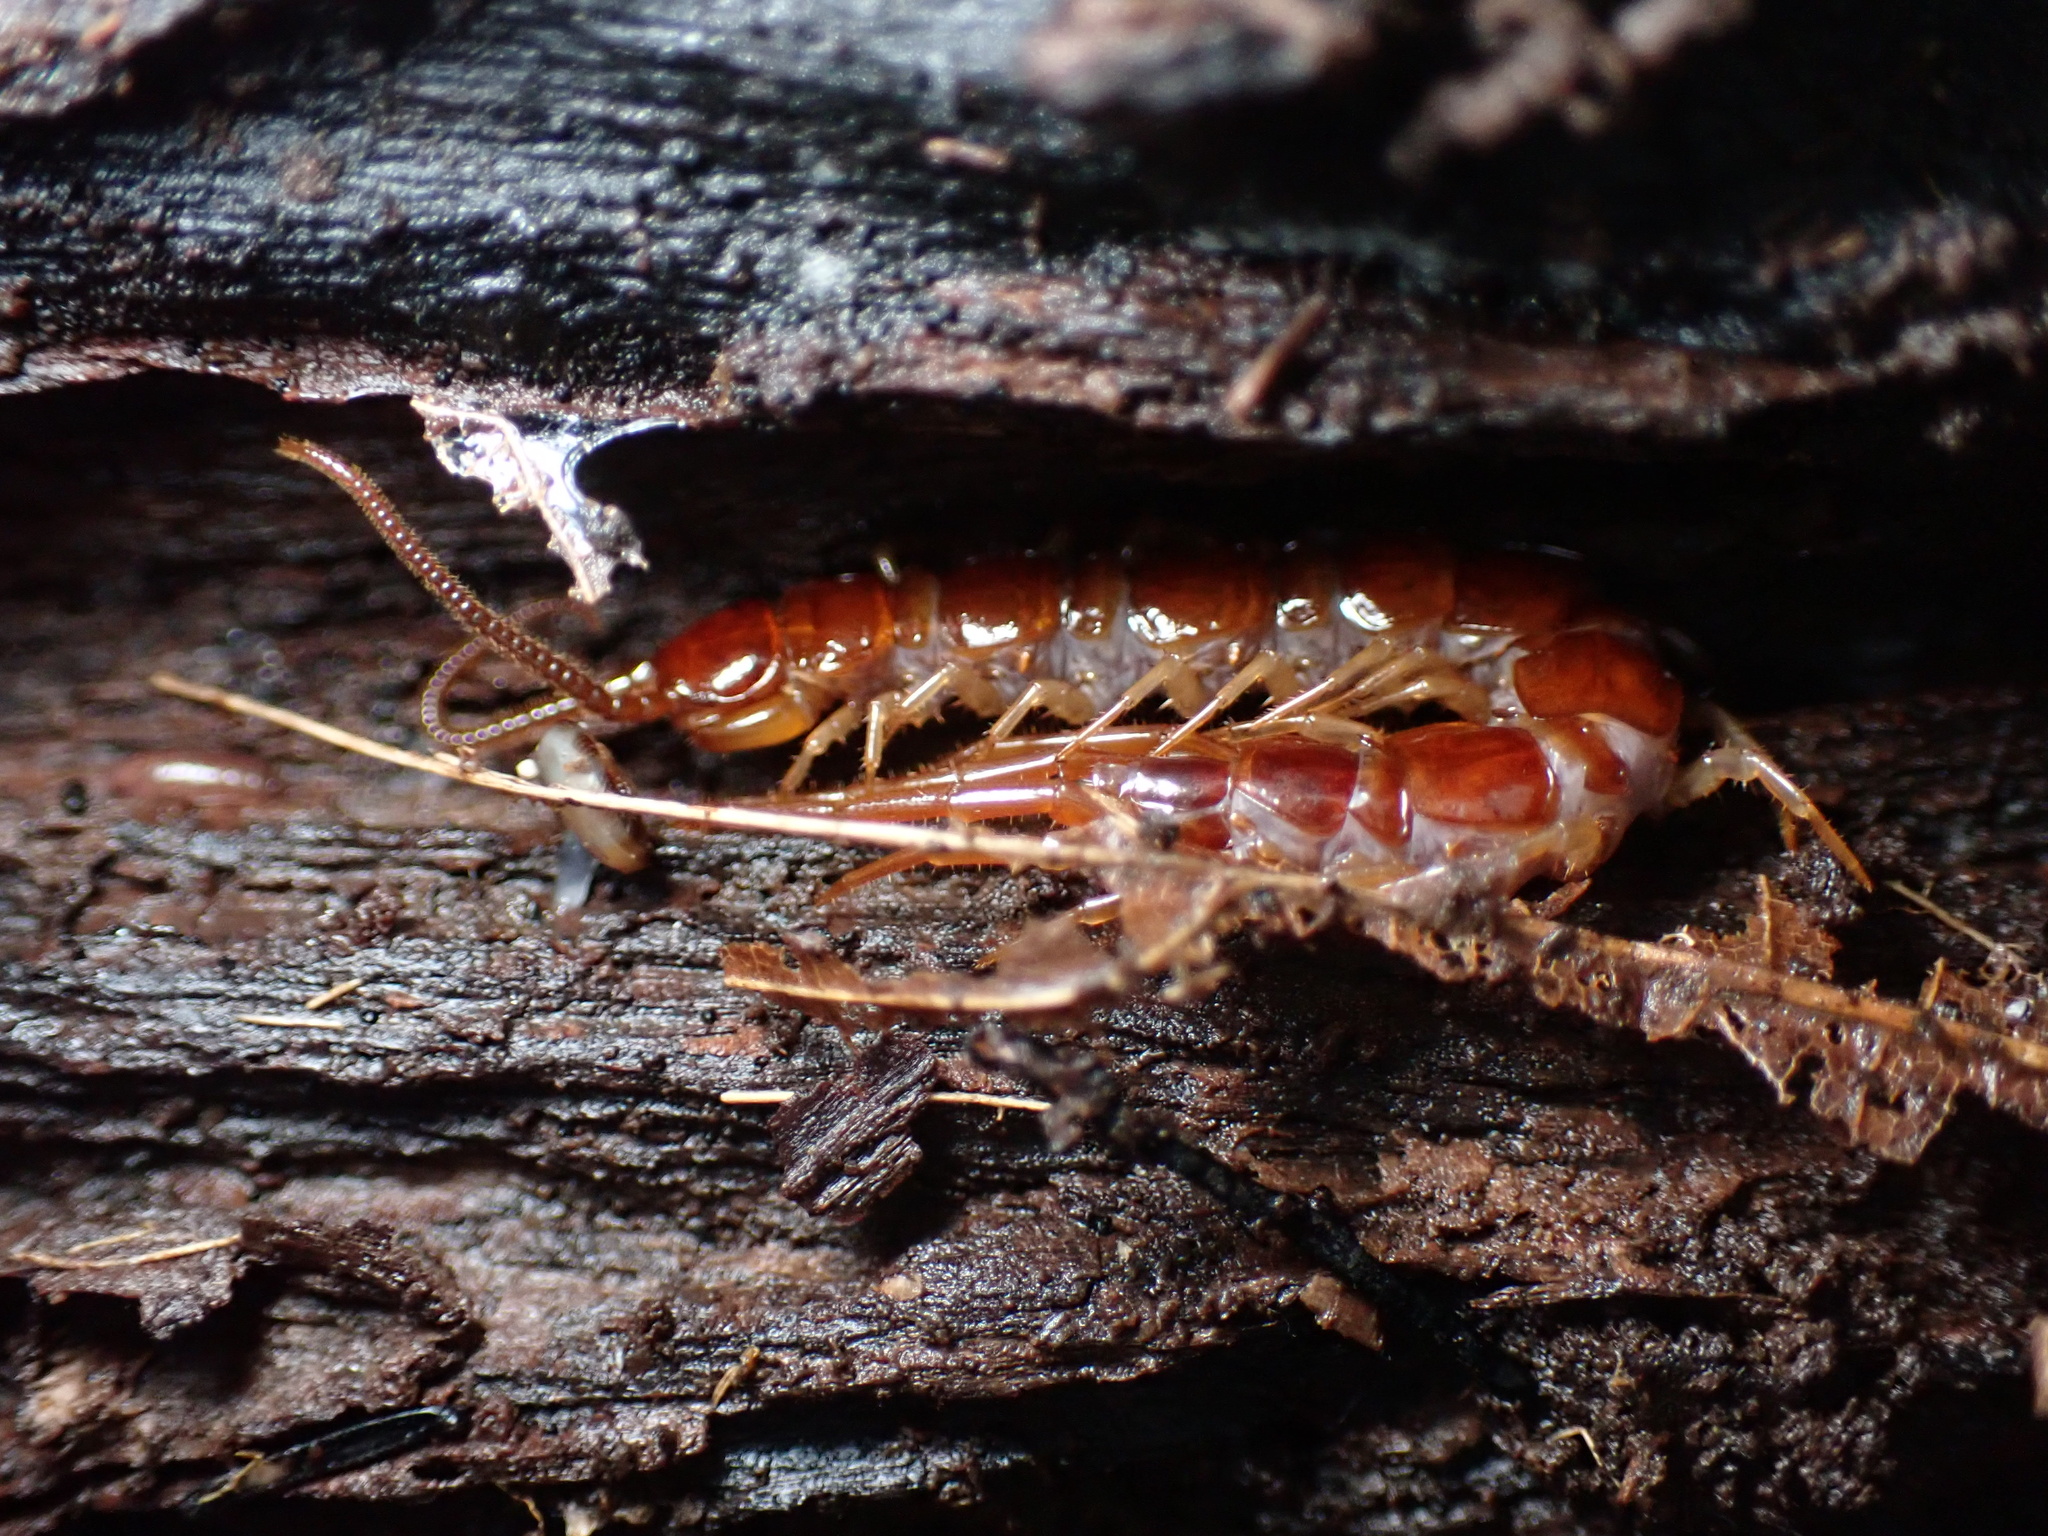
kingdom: Animalia
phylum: Arthropoda
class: Chilopoda
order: Lithobiomorpha
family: Lithobiidae
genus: Lithobius
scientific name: Lithobius forficatus
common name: Centipede
